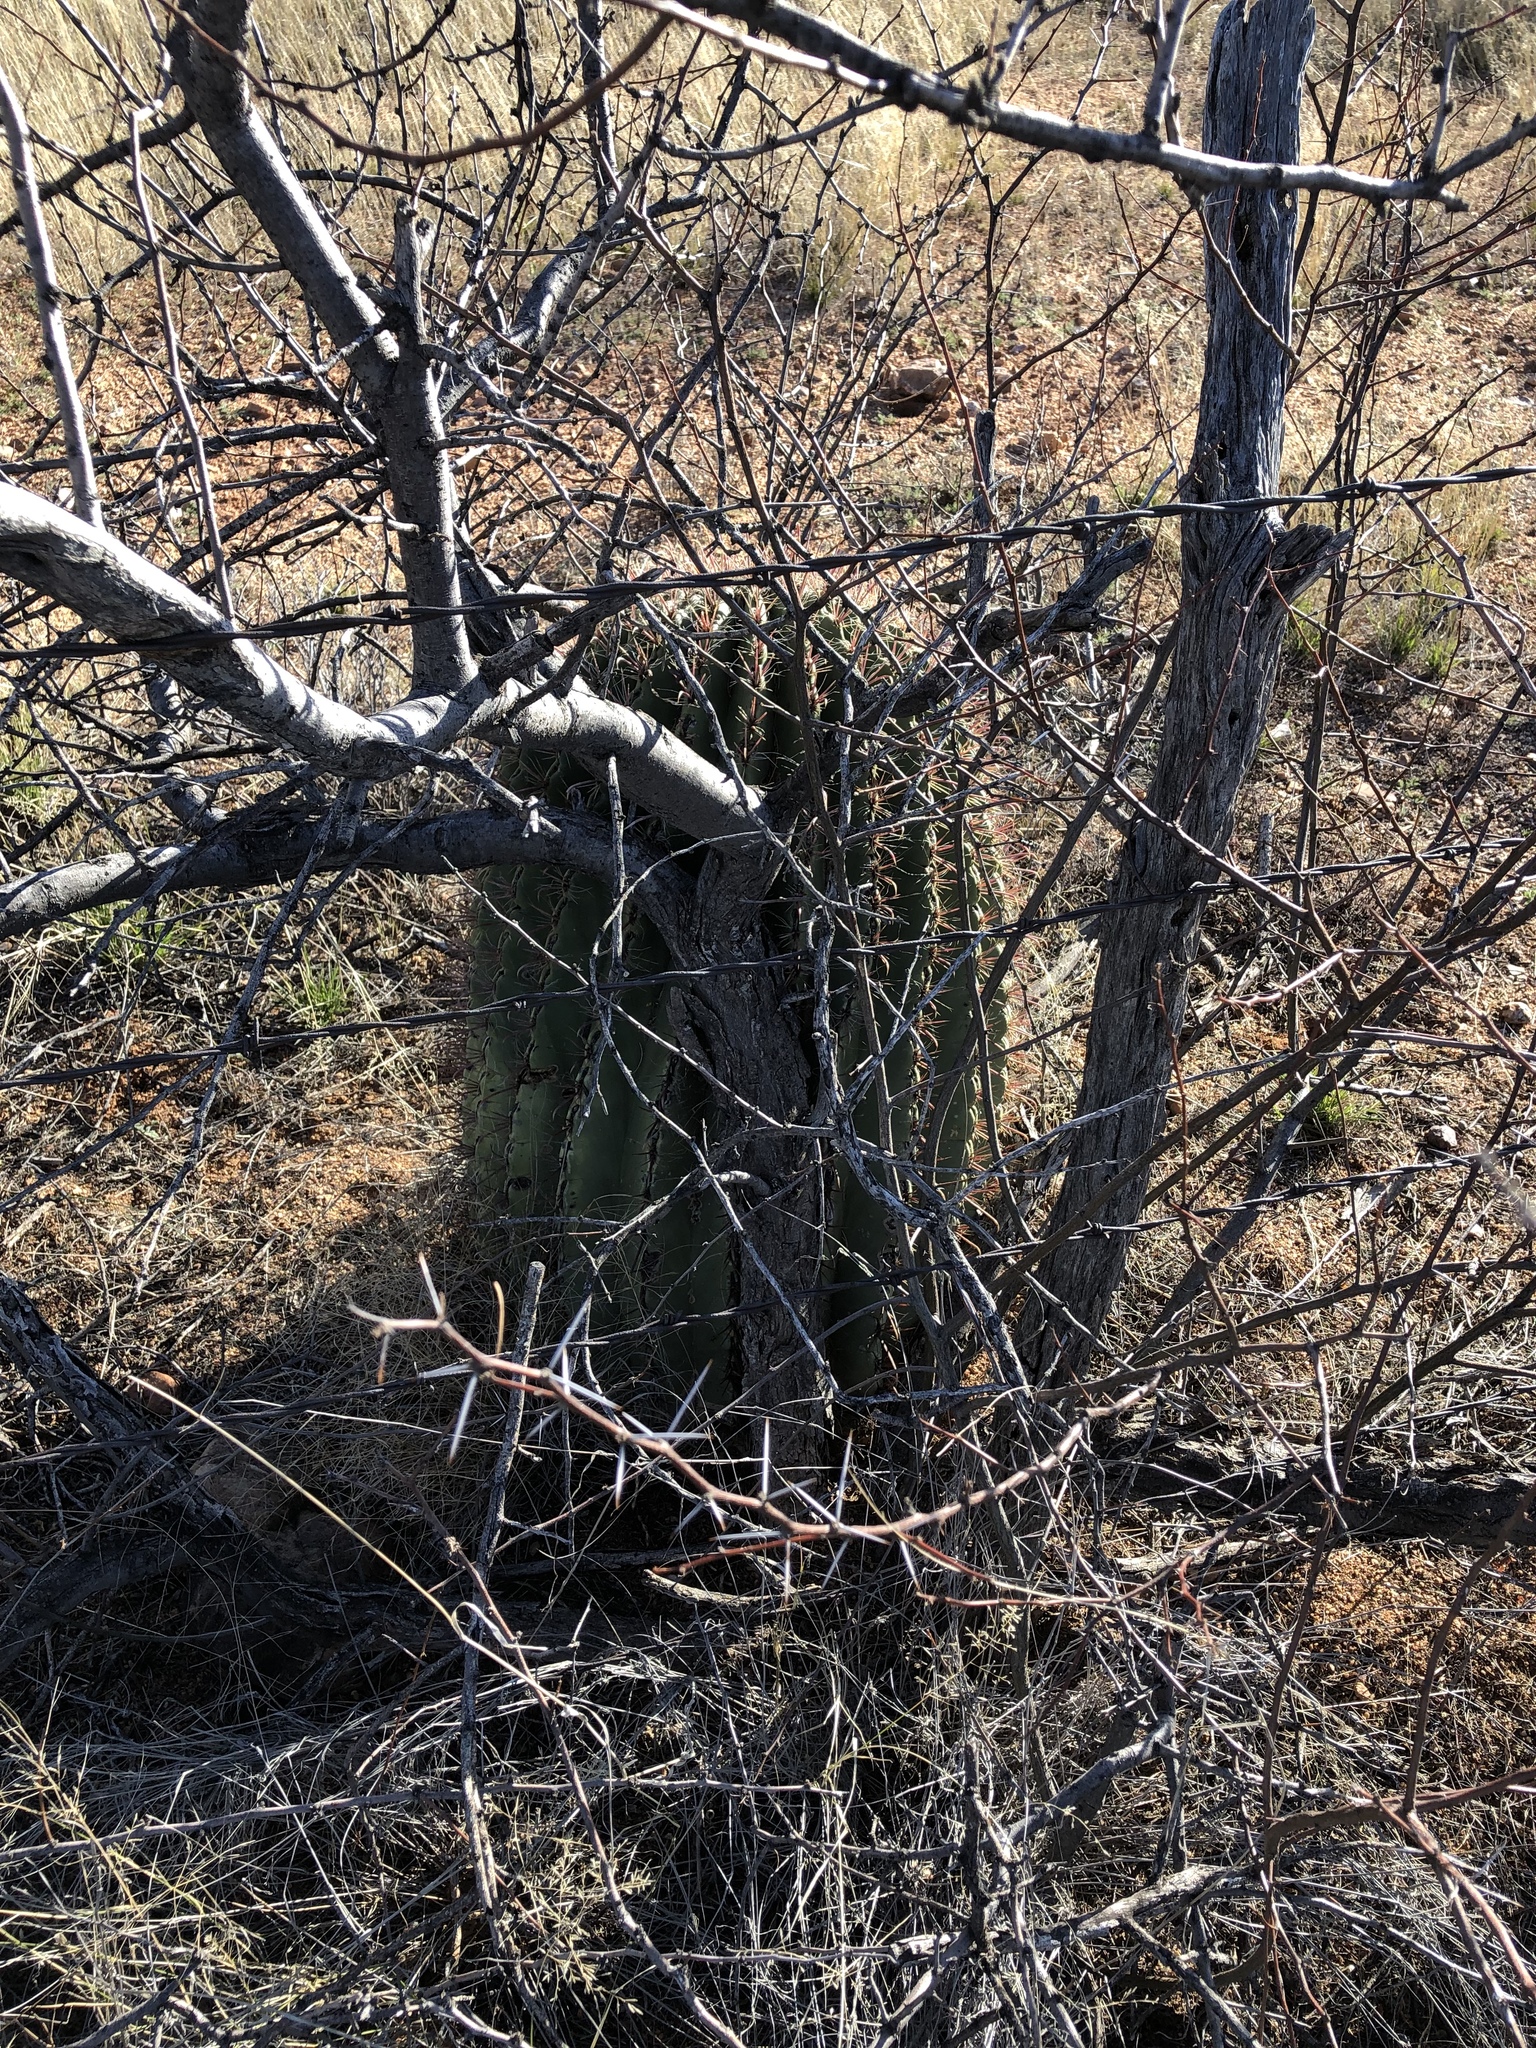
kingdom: Plantae
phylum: Tracheophyta
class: Magnoliopsida
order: Caryophyllales
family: Cactaceae
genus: Ferocactus
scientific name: Ferocactus wislizeni
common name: Candy barrel cactus
